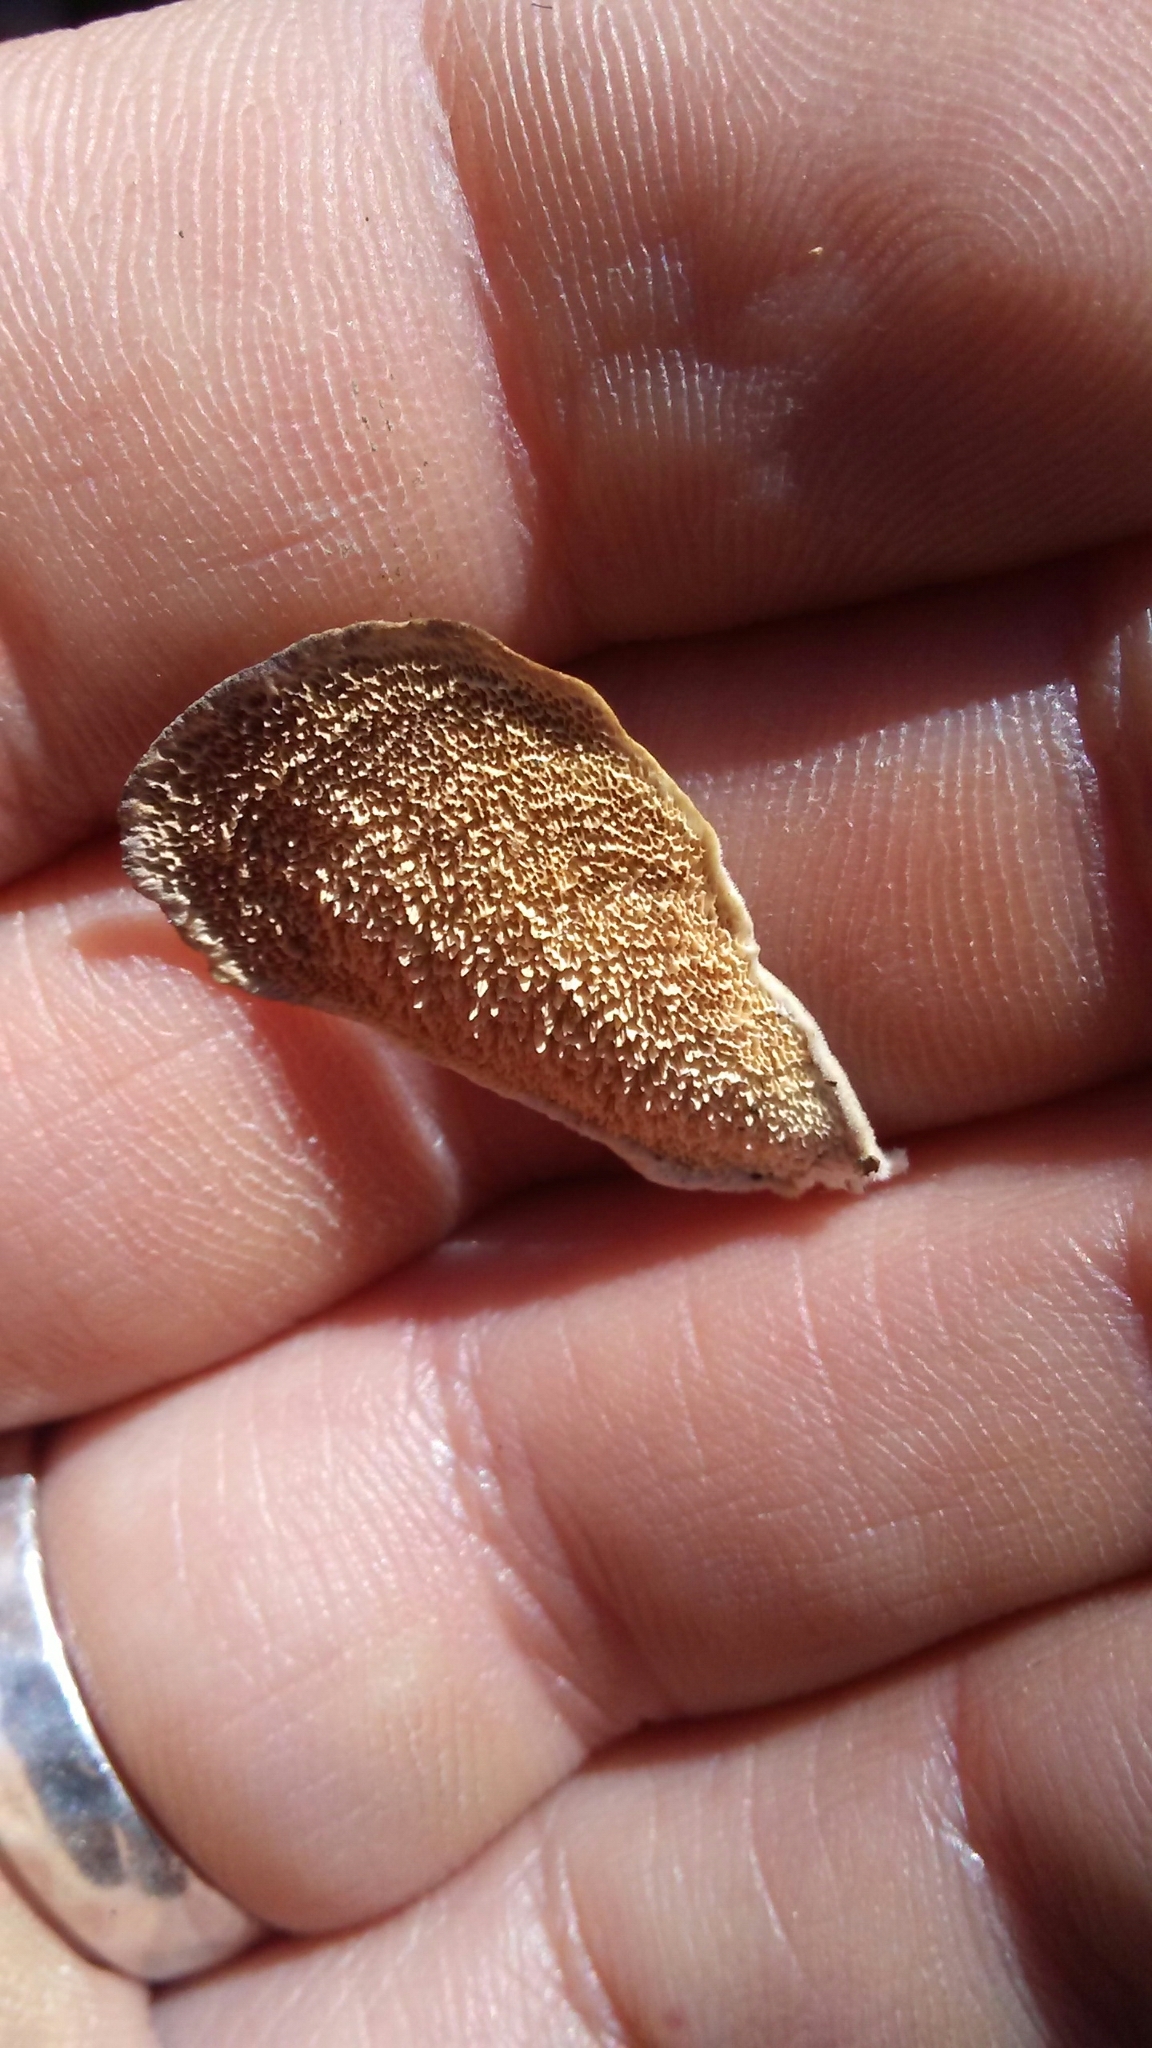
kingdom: Fungi
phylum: Basidiomycota
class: Agaricomycetes
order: Hymenochaetales
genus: Trichaptum
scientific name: Trichaptum biforme
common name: Violet-toothed polypore
